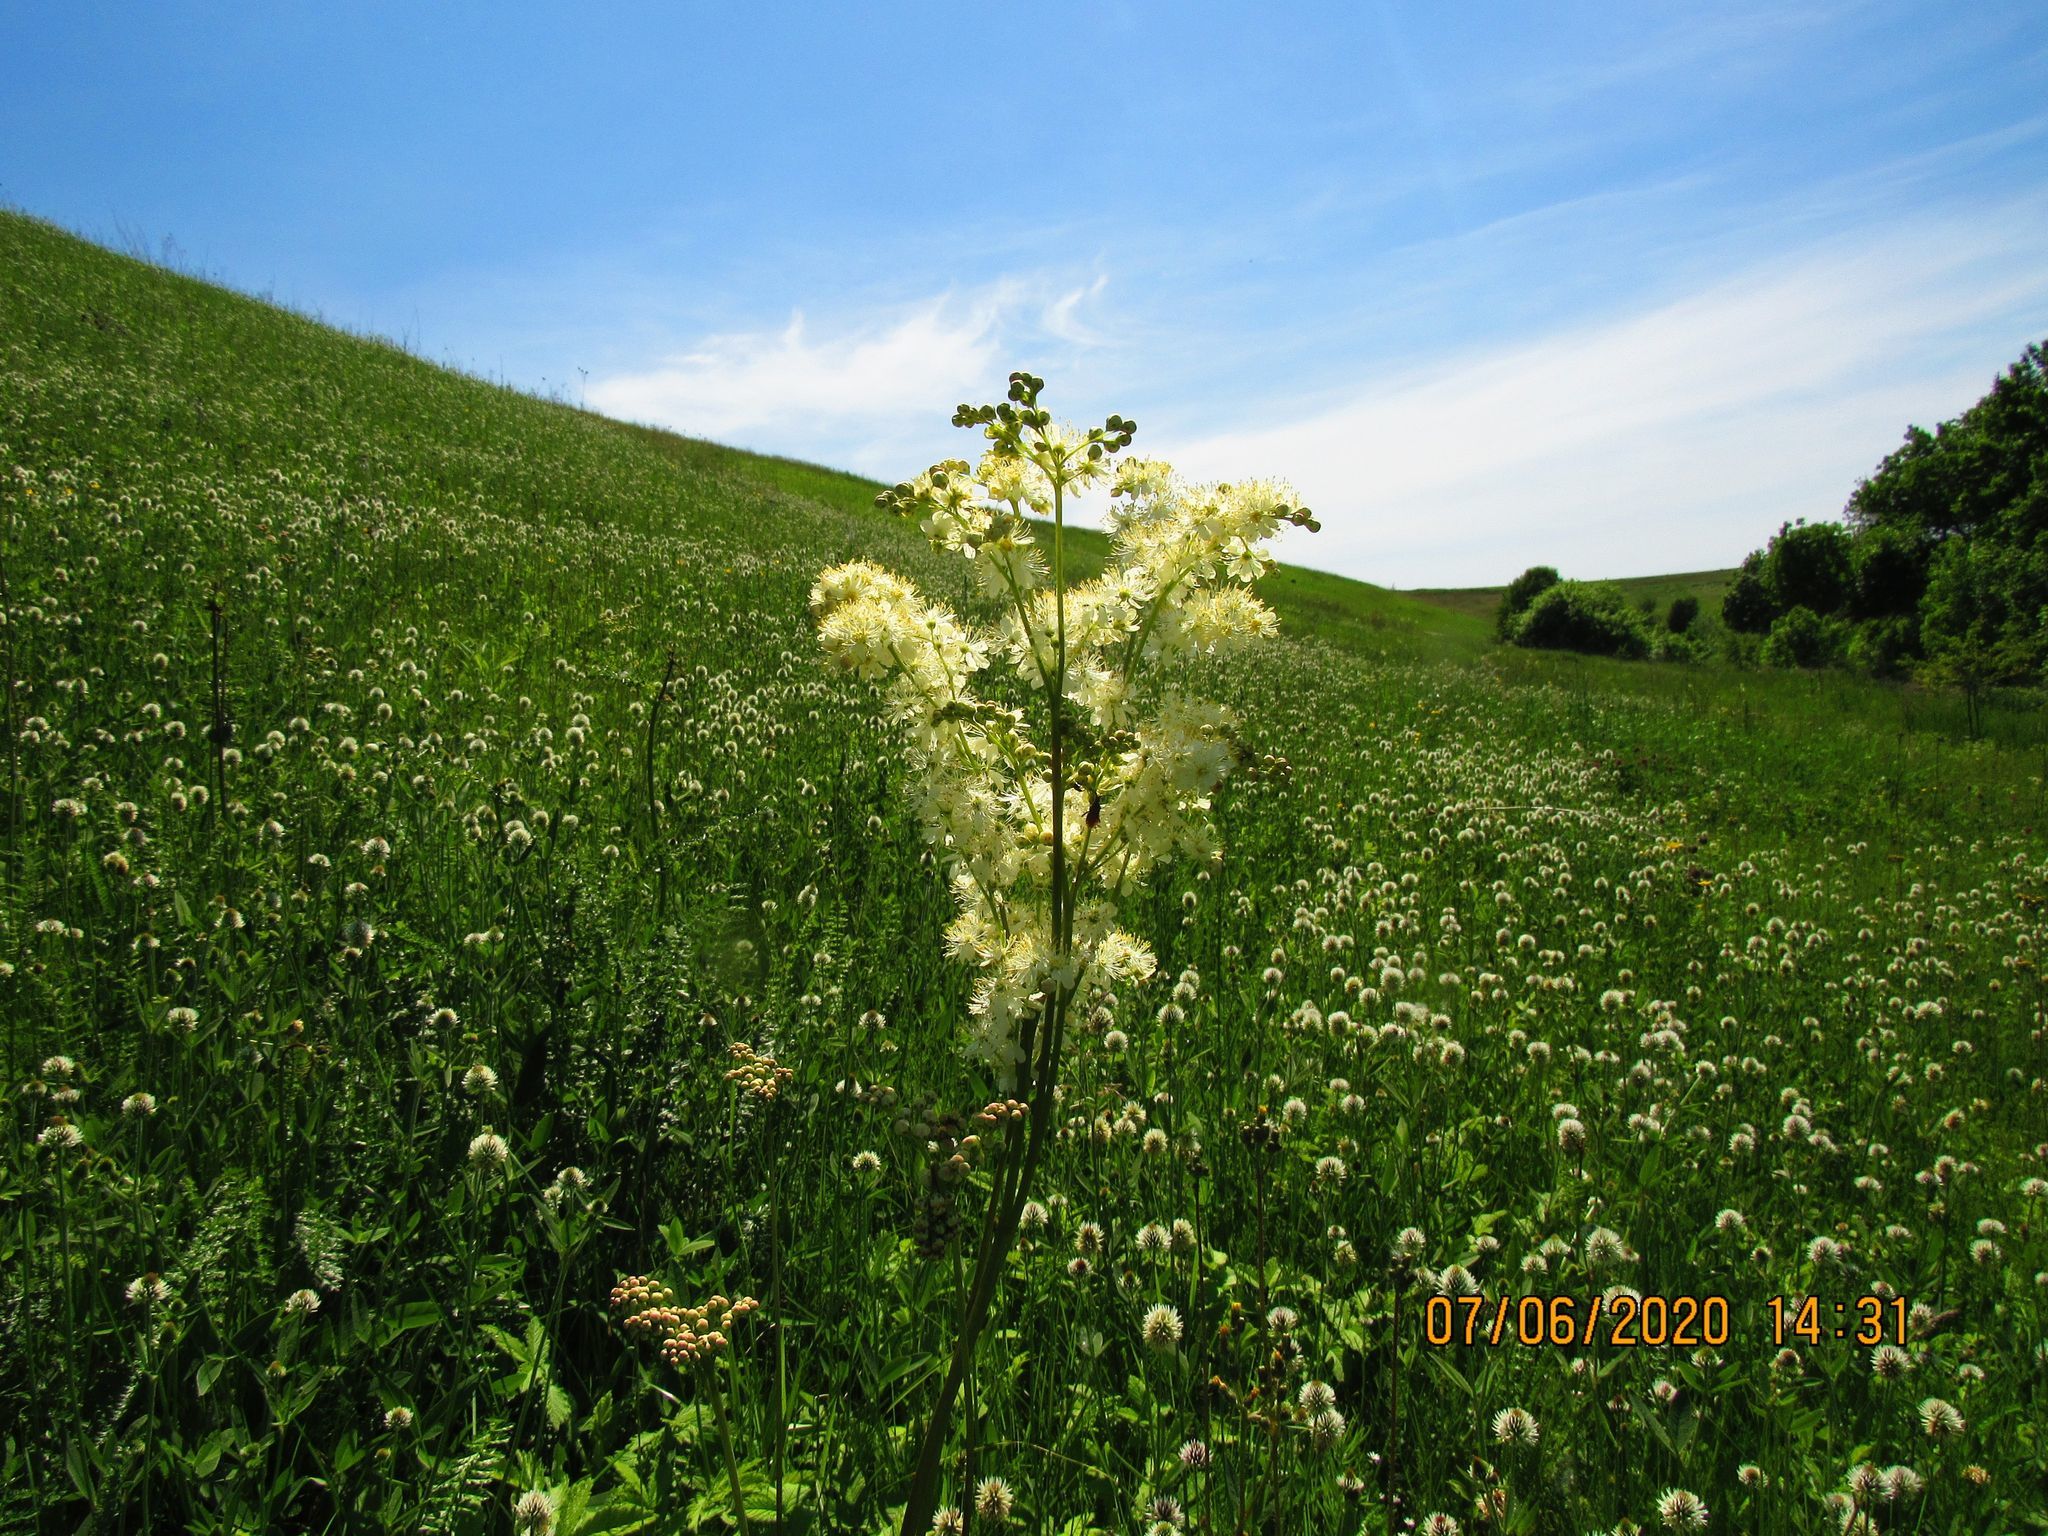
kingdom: Plantae
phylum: Tracheophyta
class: Magnoliopsida
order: Rosales
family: Rosaceae
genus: Filipendula
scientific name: Filipendula vulgaris
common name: Dropwort
